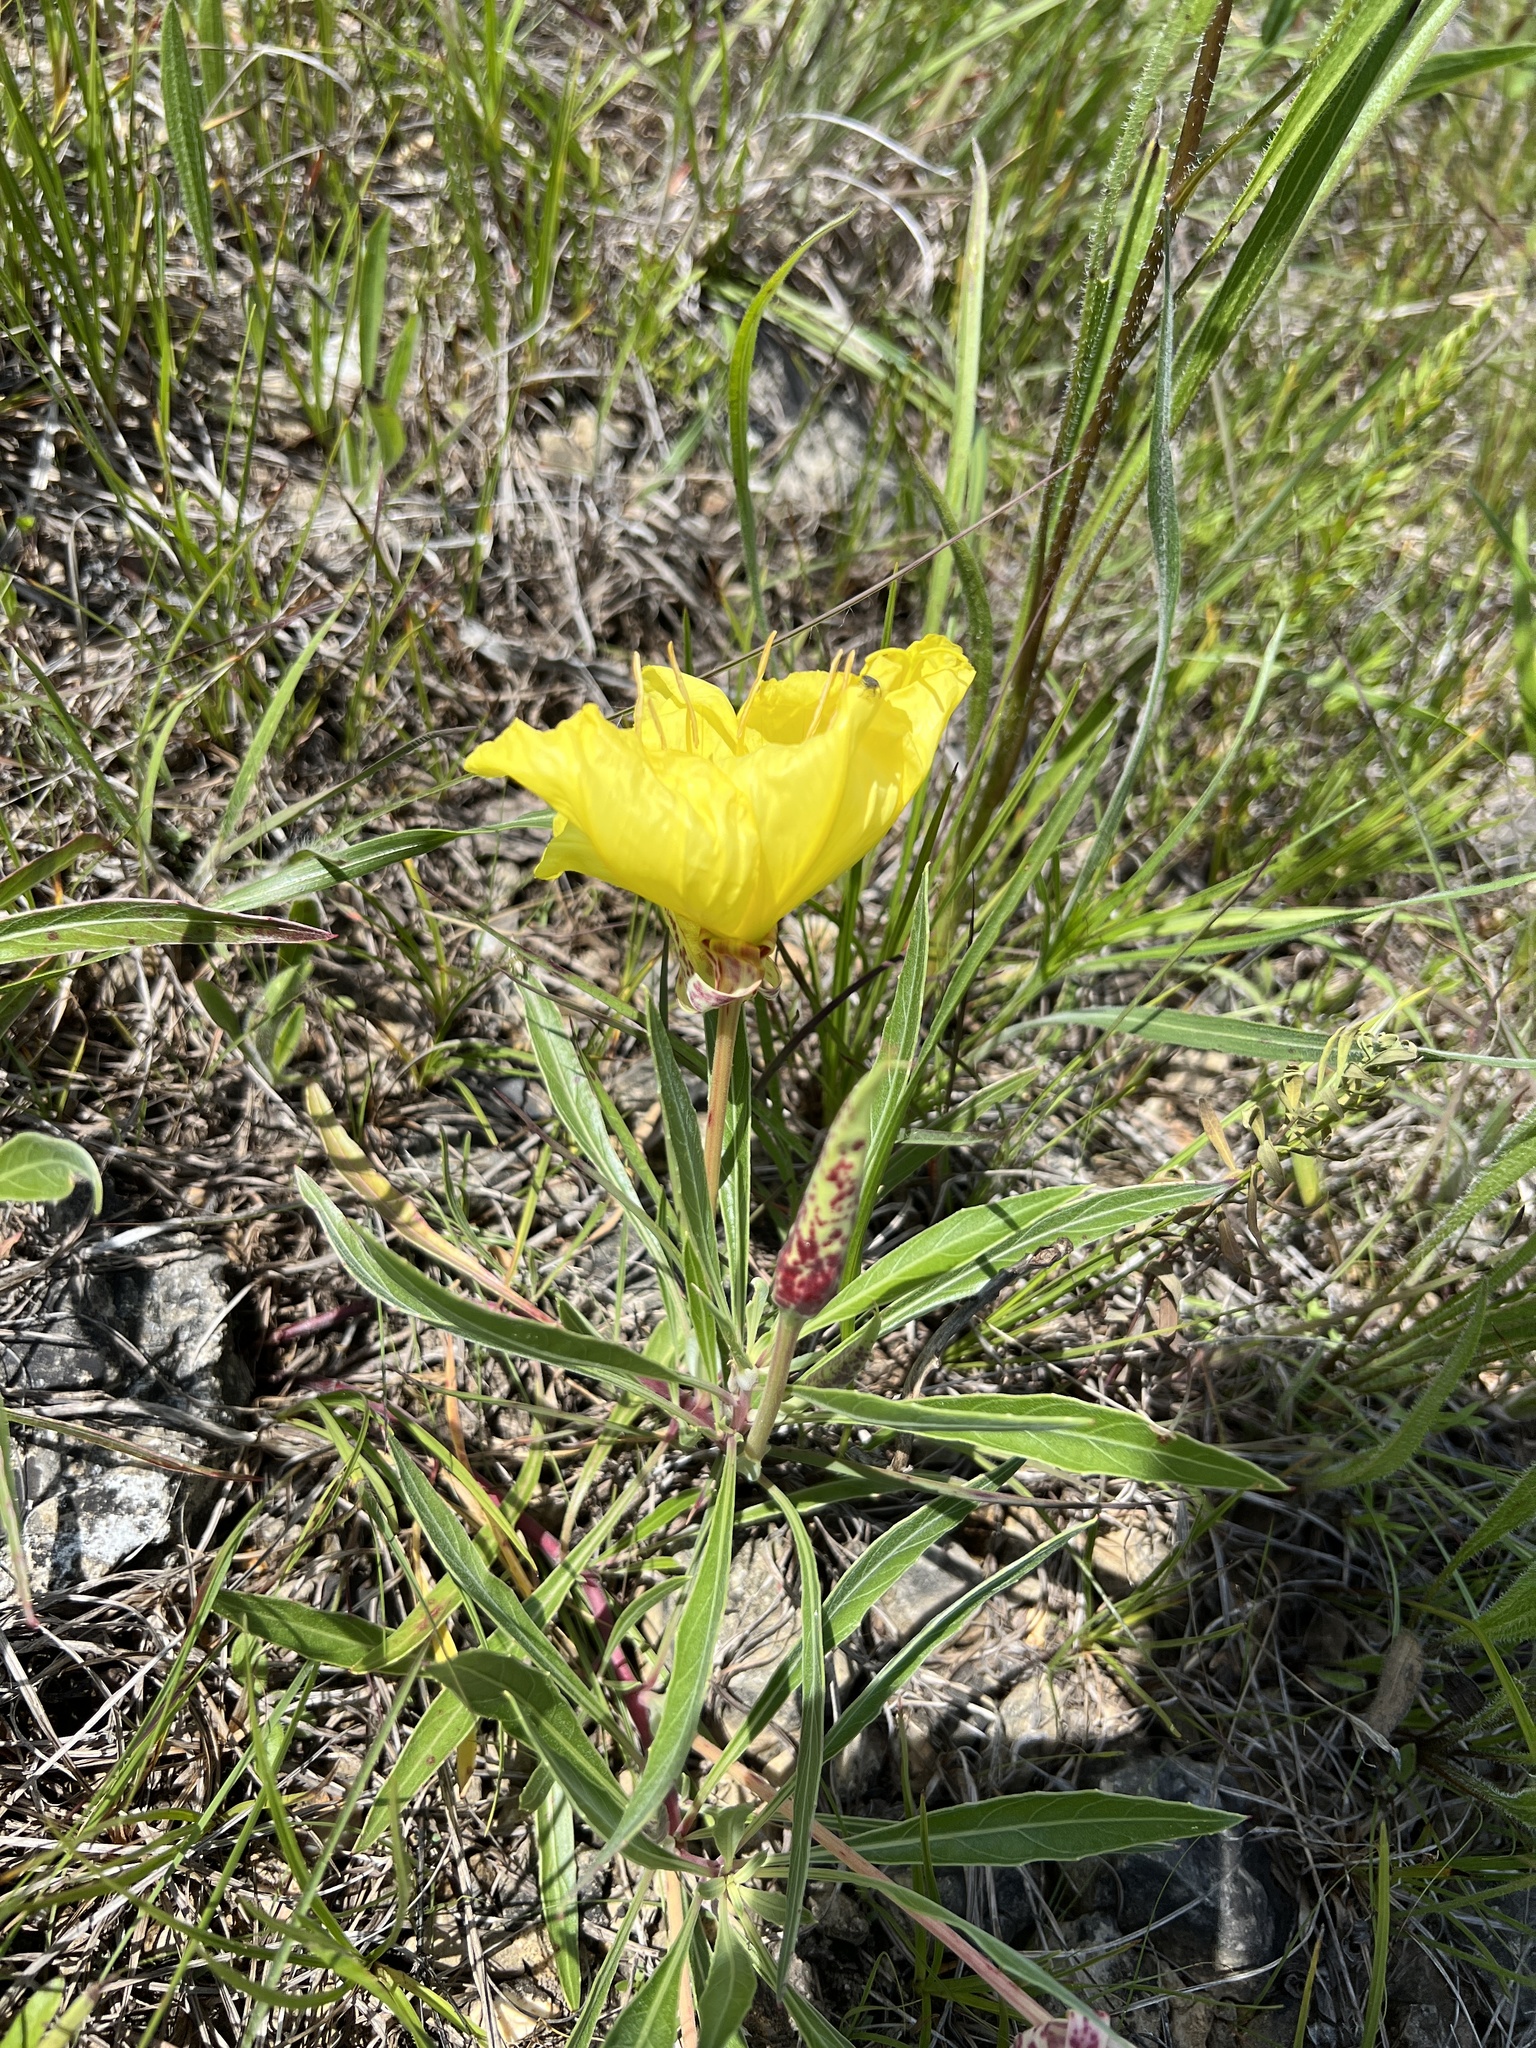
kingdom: Plantae
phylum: Tracheophyta
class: Magnoliopsida
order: Myrtales
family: Onagraceae
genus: Oenothera
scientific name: Oenothera macrocarpa
